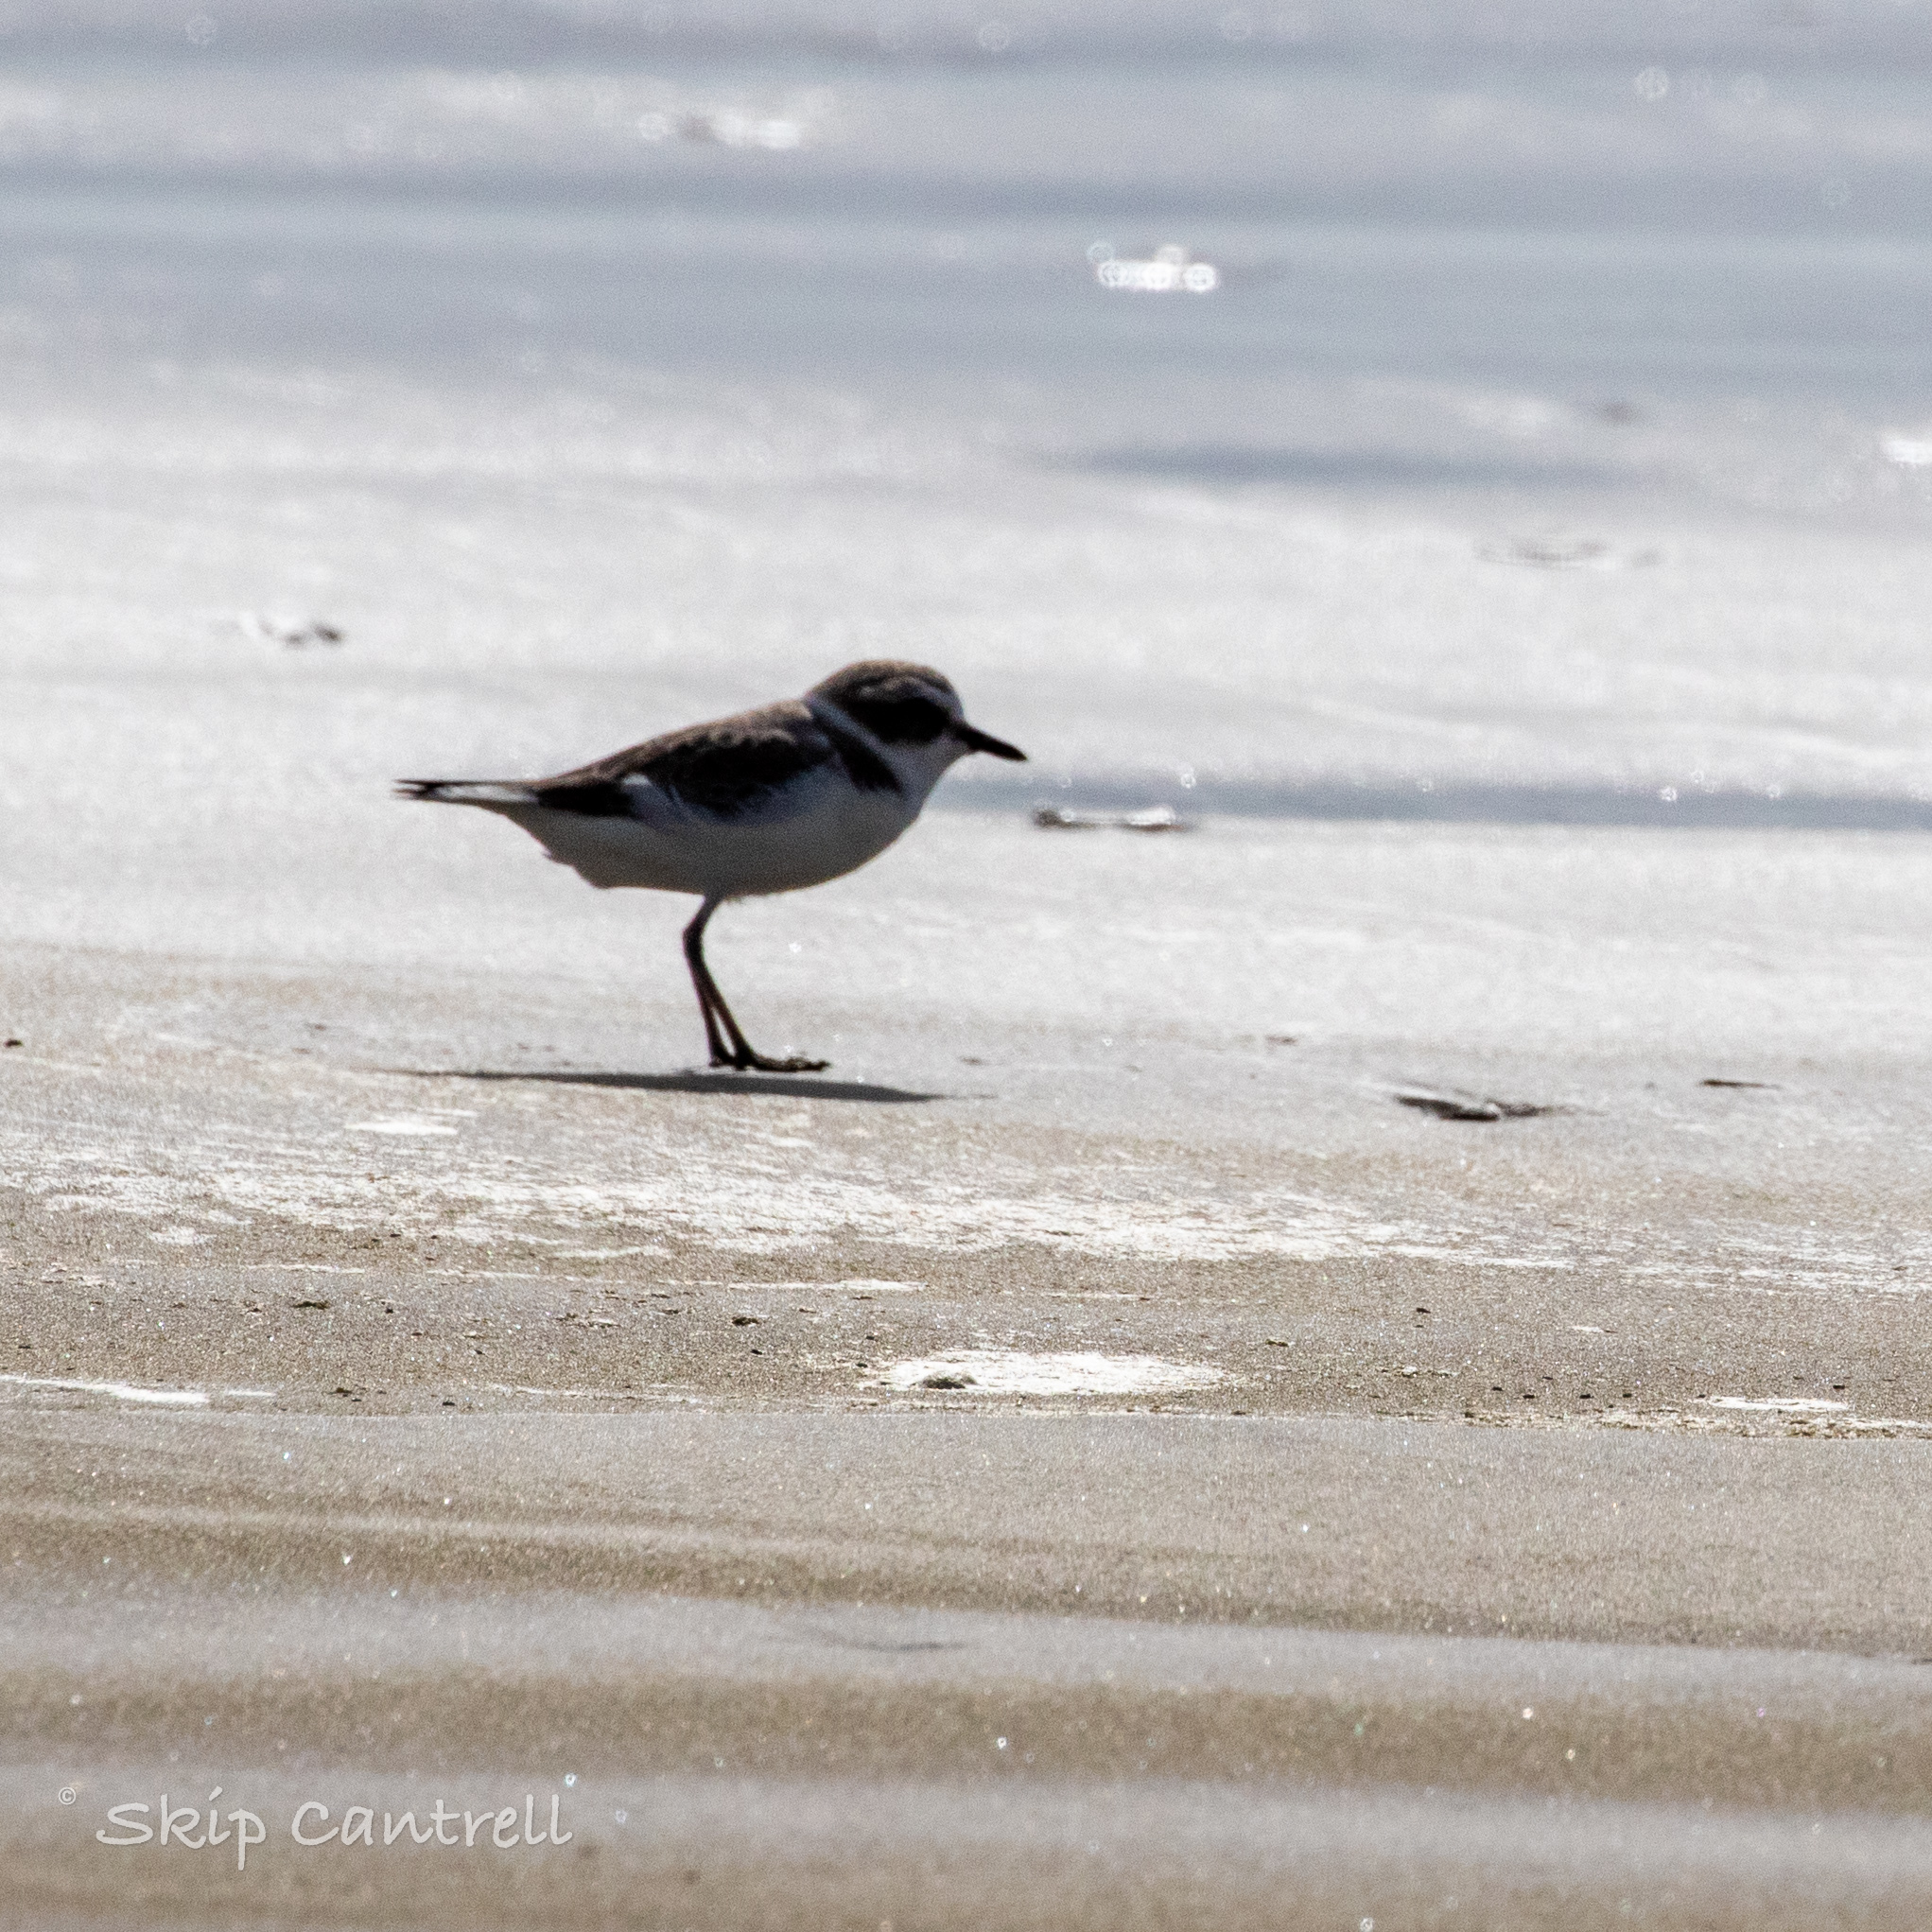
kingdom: Animalia
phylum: Chordata
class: Aves
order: Charadriiformes
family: Charadriidae
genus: Anarhynchus
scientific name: Anarhynchus
